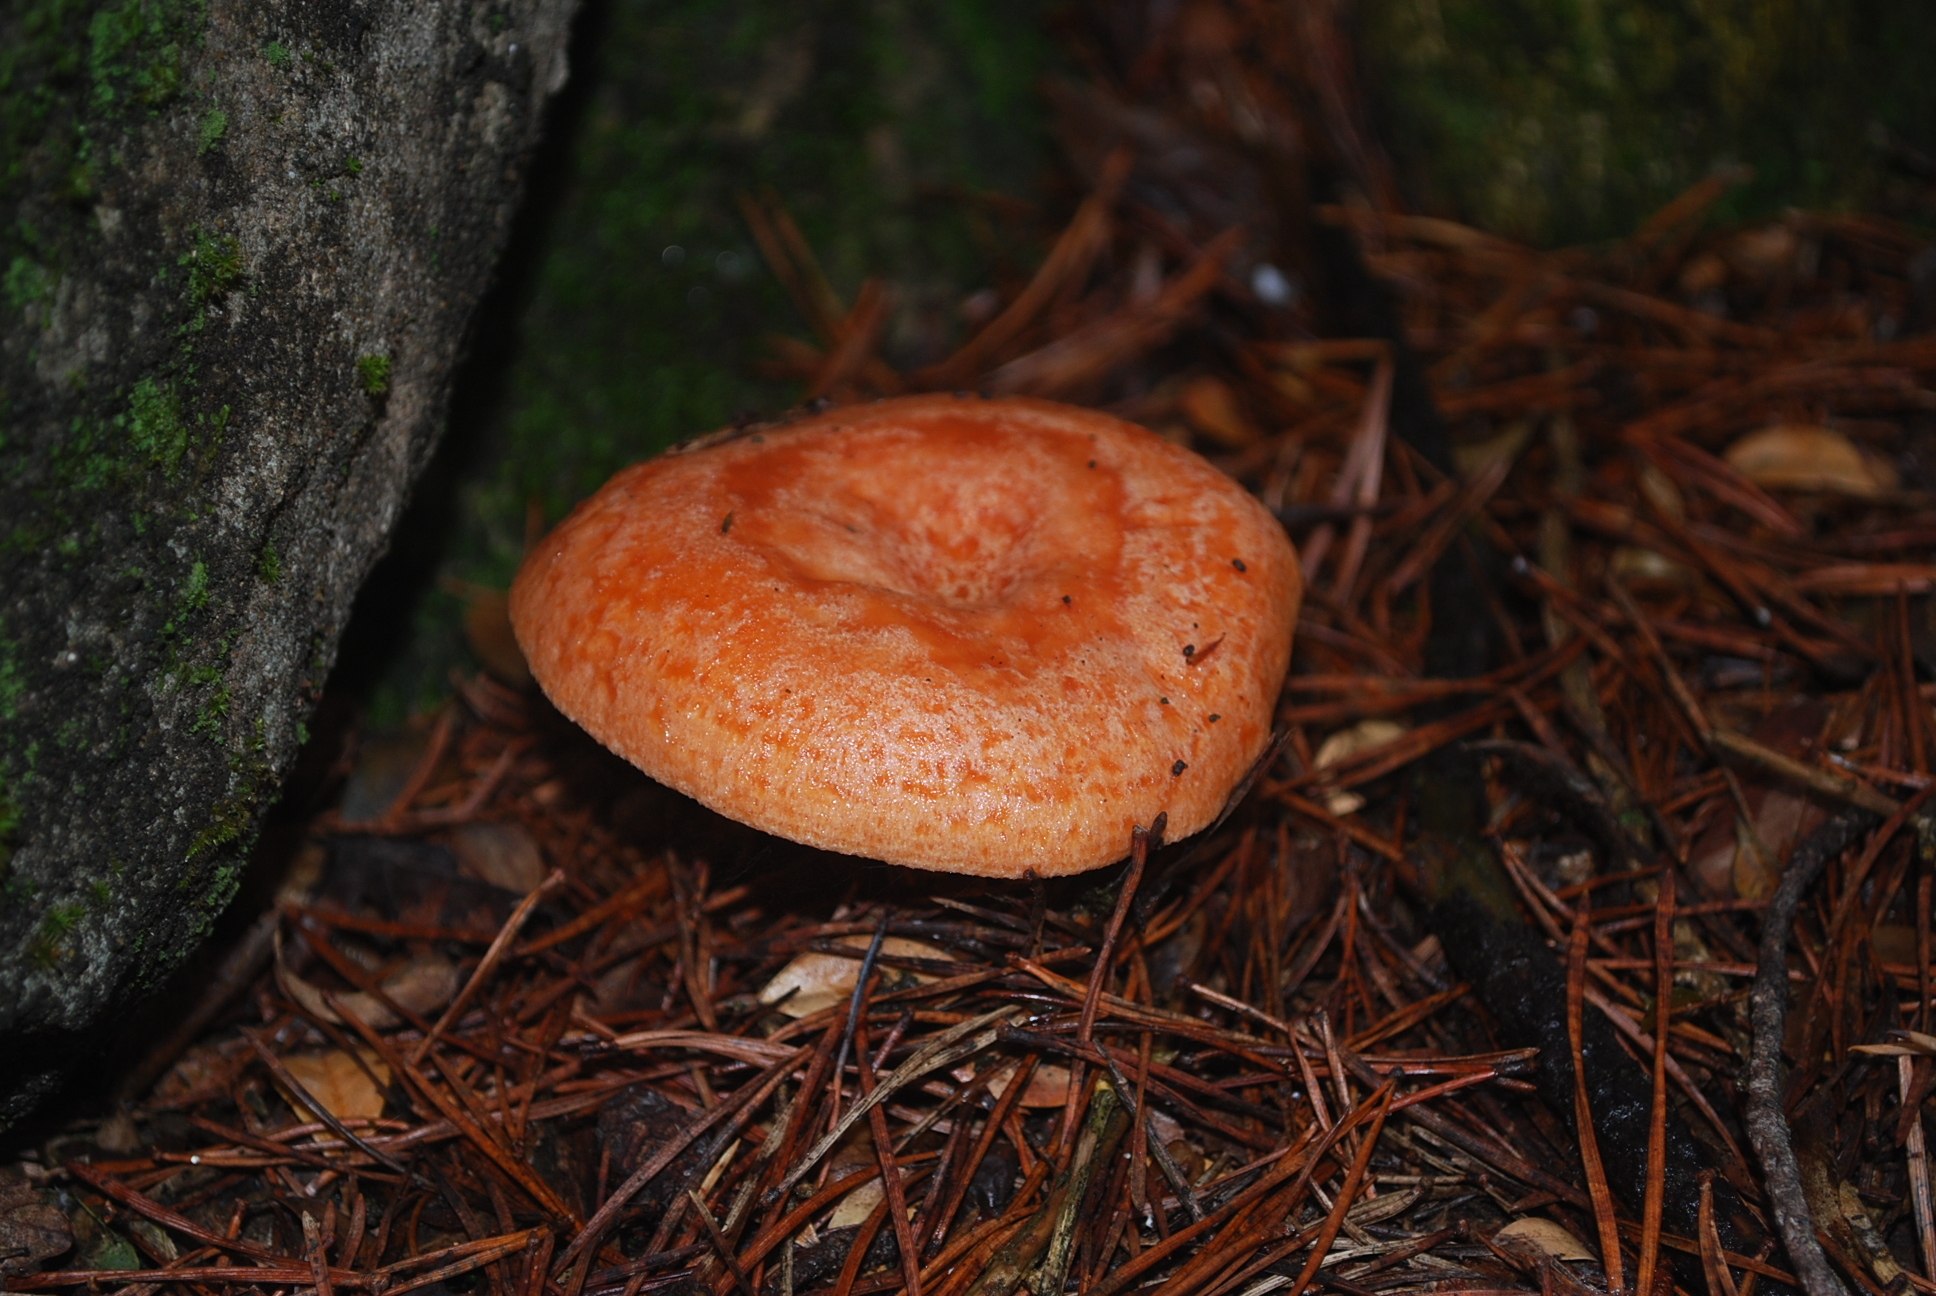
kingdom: Fungi
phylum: Basidiomycota
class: Agaricomycetes
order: Russulales
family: Russulaceae
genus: Lactarius
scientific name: Lactarius deliciosus
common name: Saffron milk-cap
